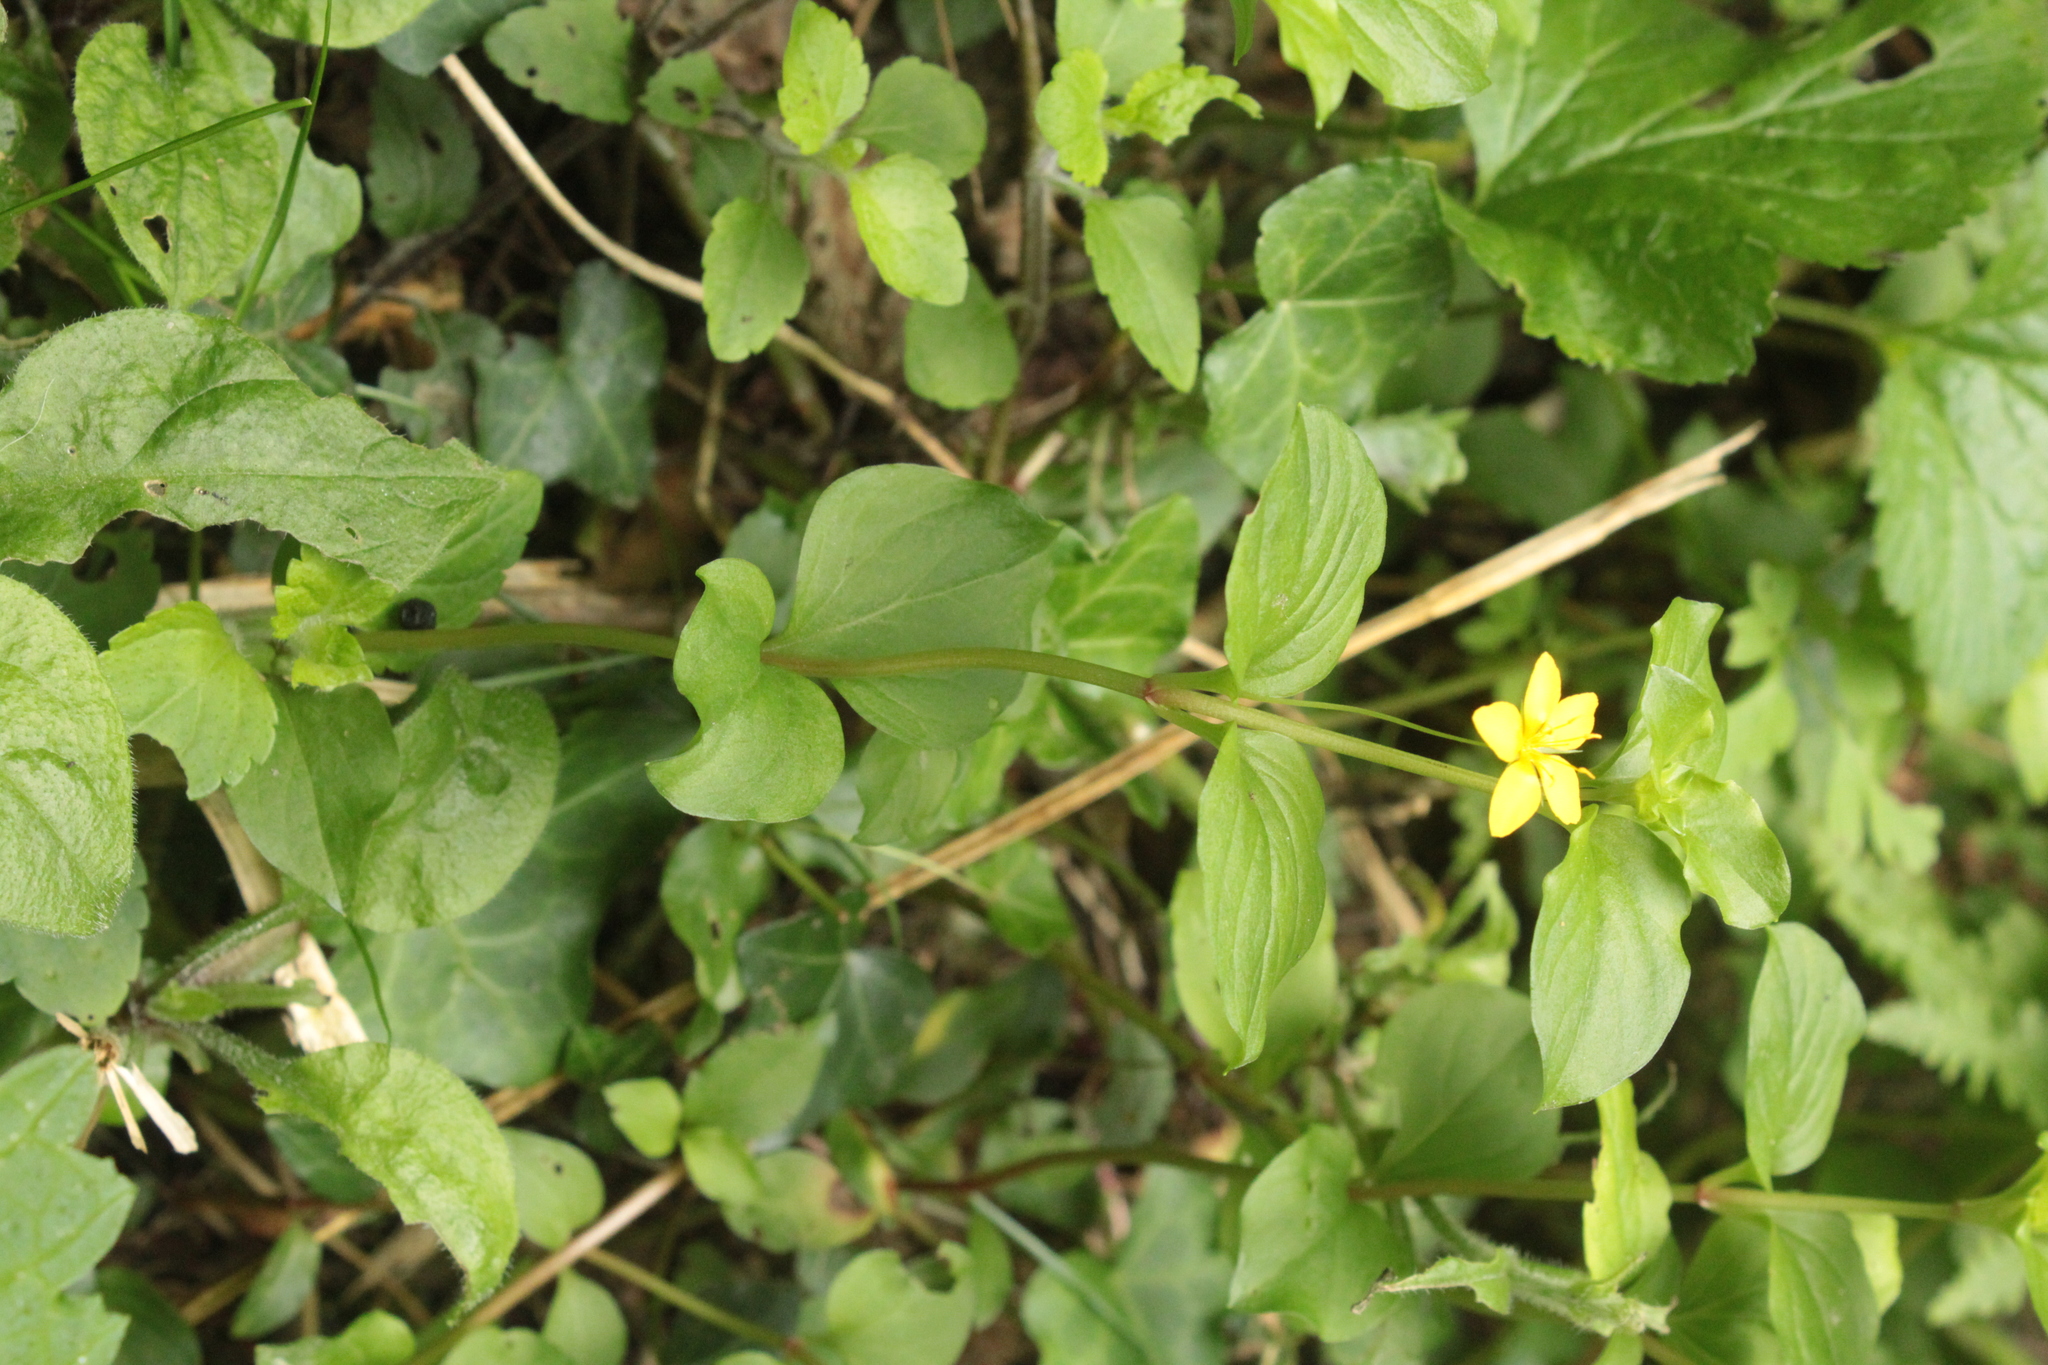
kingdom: Plantae
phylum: Tracheophyta
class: Magnoliopsida
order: Ericales
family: Primulaceae
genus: Lysimachia
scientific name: Lysimachia nemorum
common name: Yellow pimpernel
